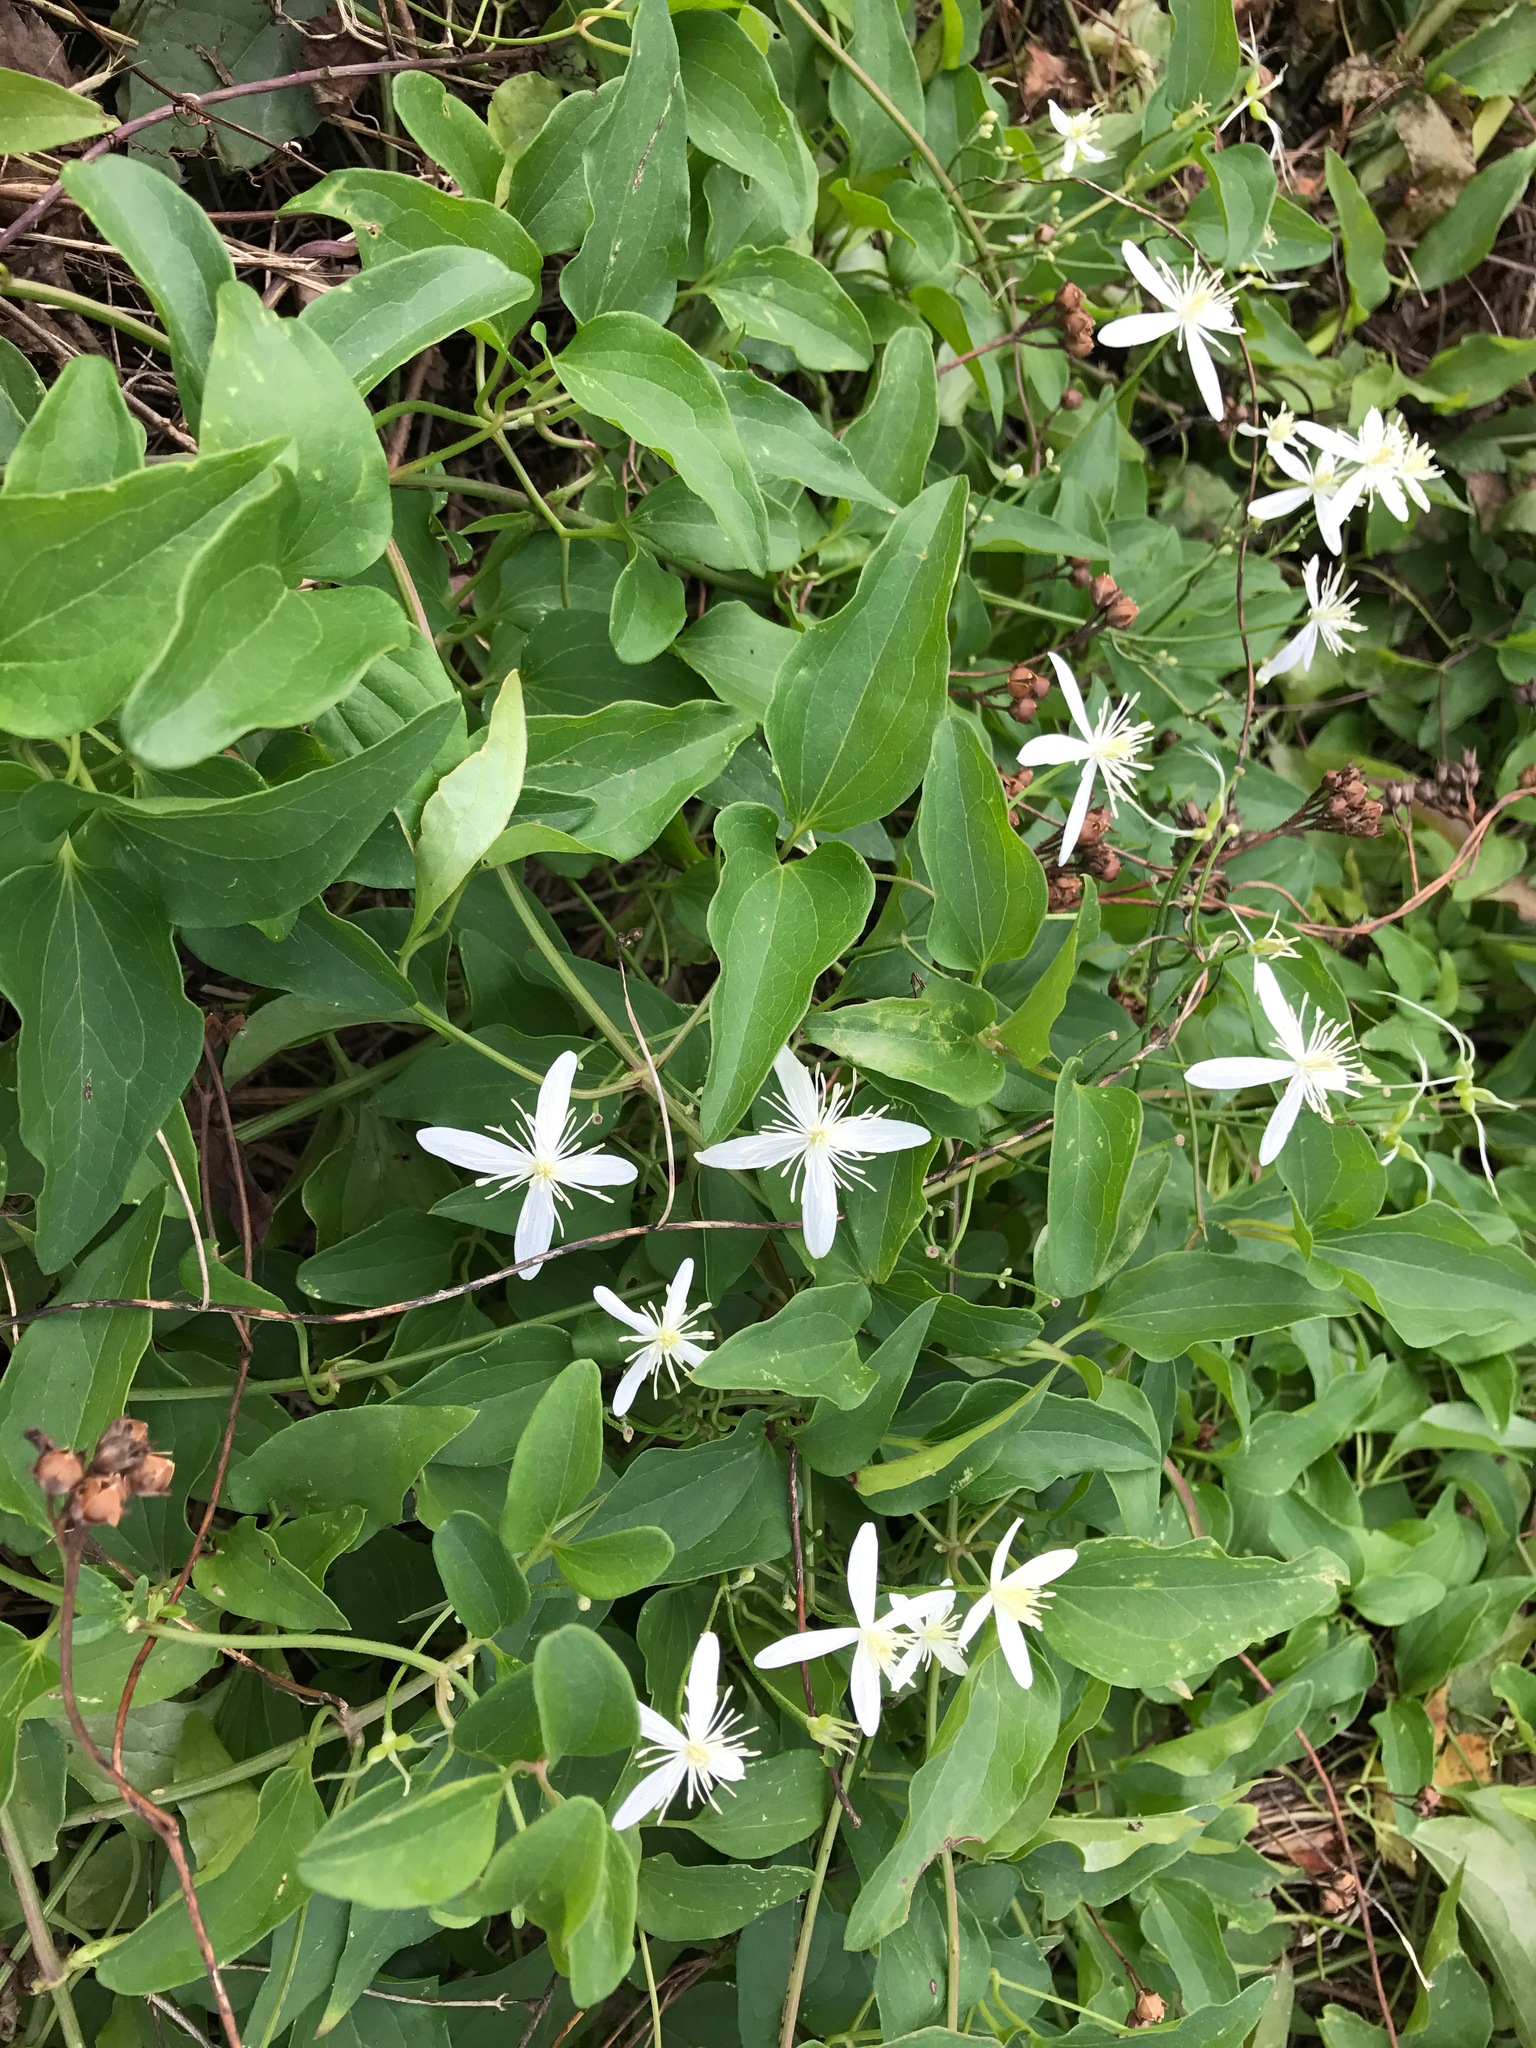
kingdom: Plantae
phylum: Tracheophyta
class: Magnoliopsida
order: Ranunculales
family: Ranunculaceae
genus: Clematis
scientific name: Clematis terniflora
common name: Sweet autumn clematis
